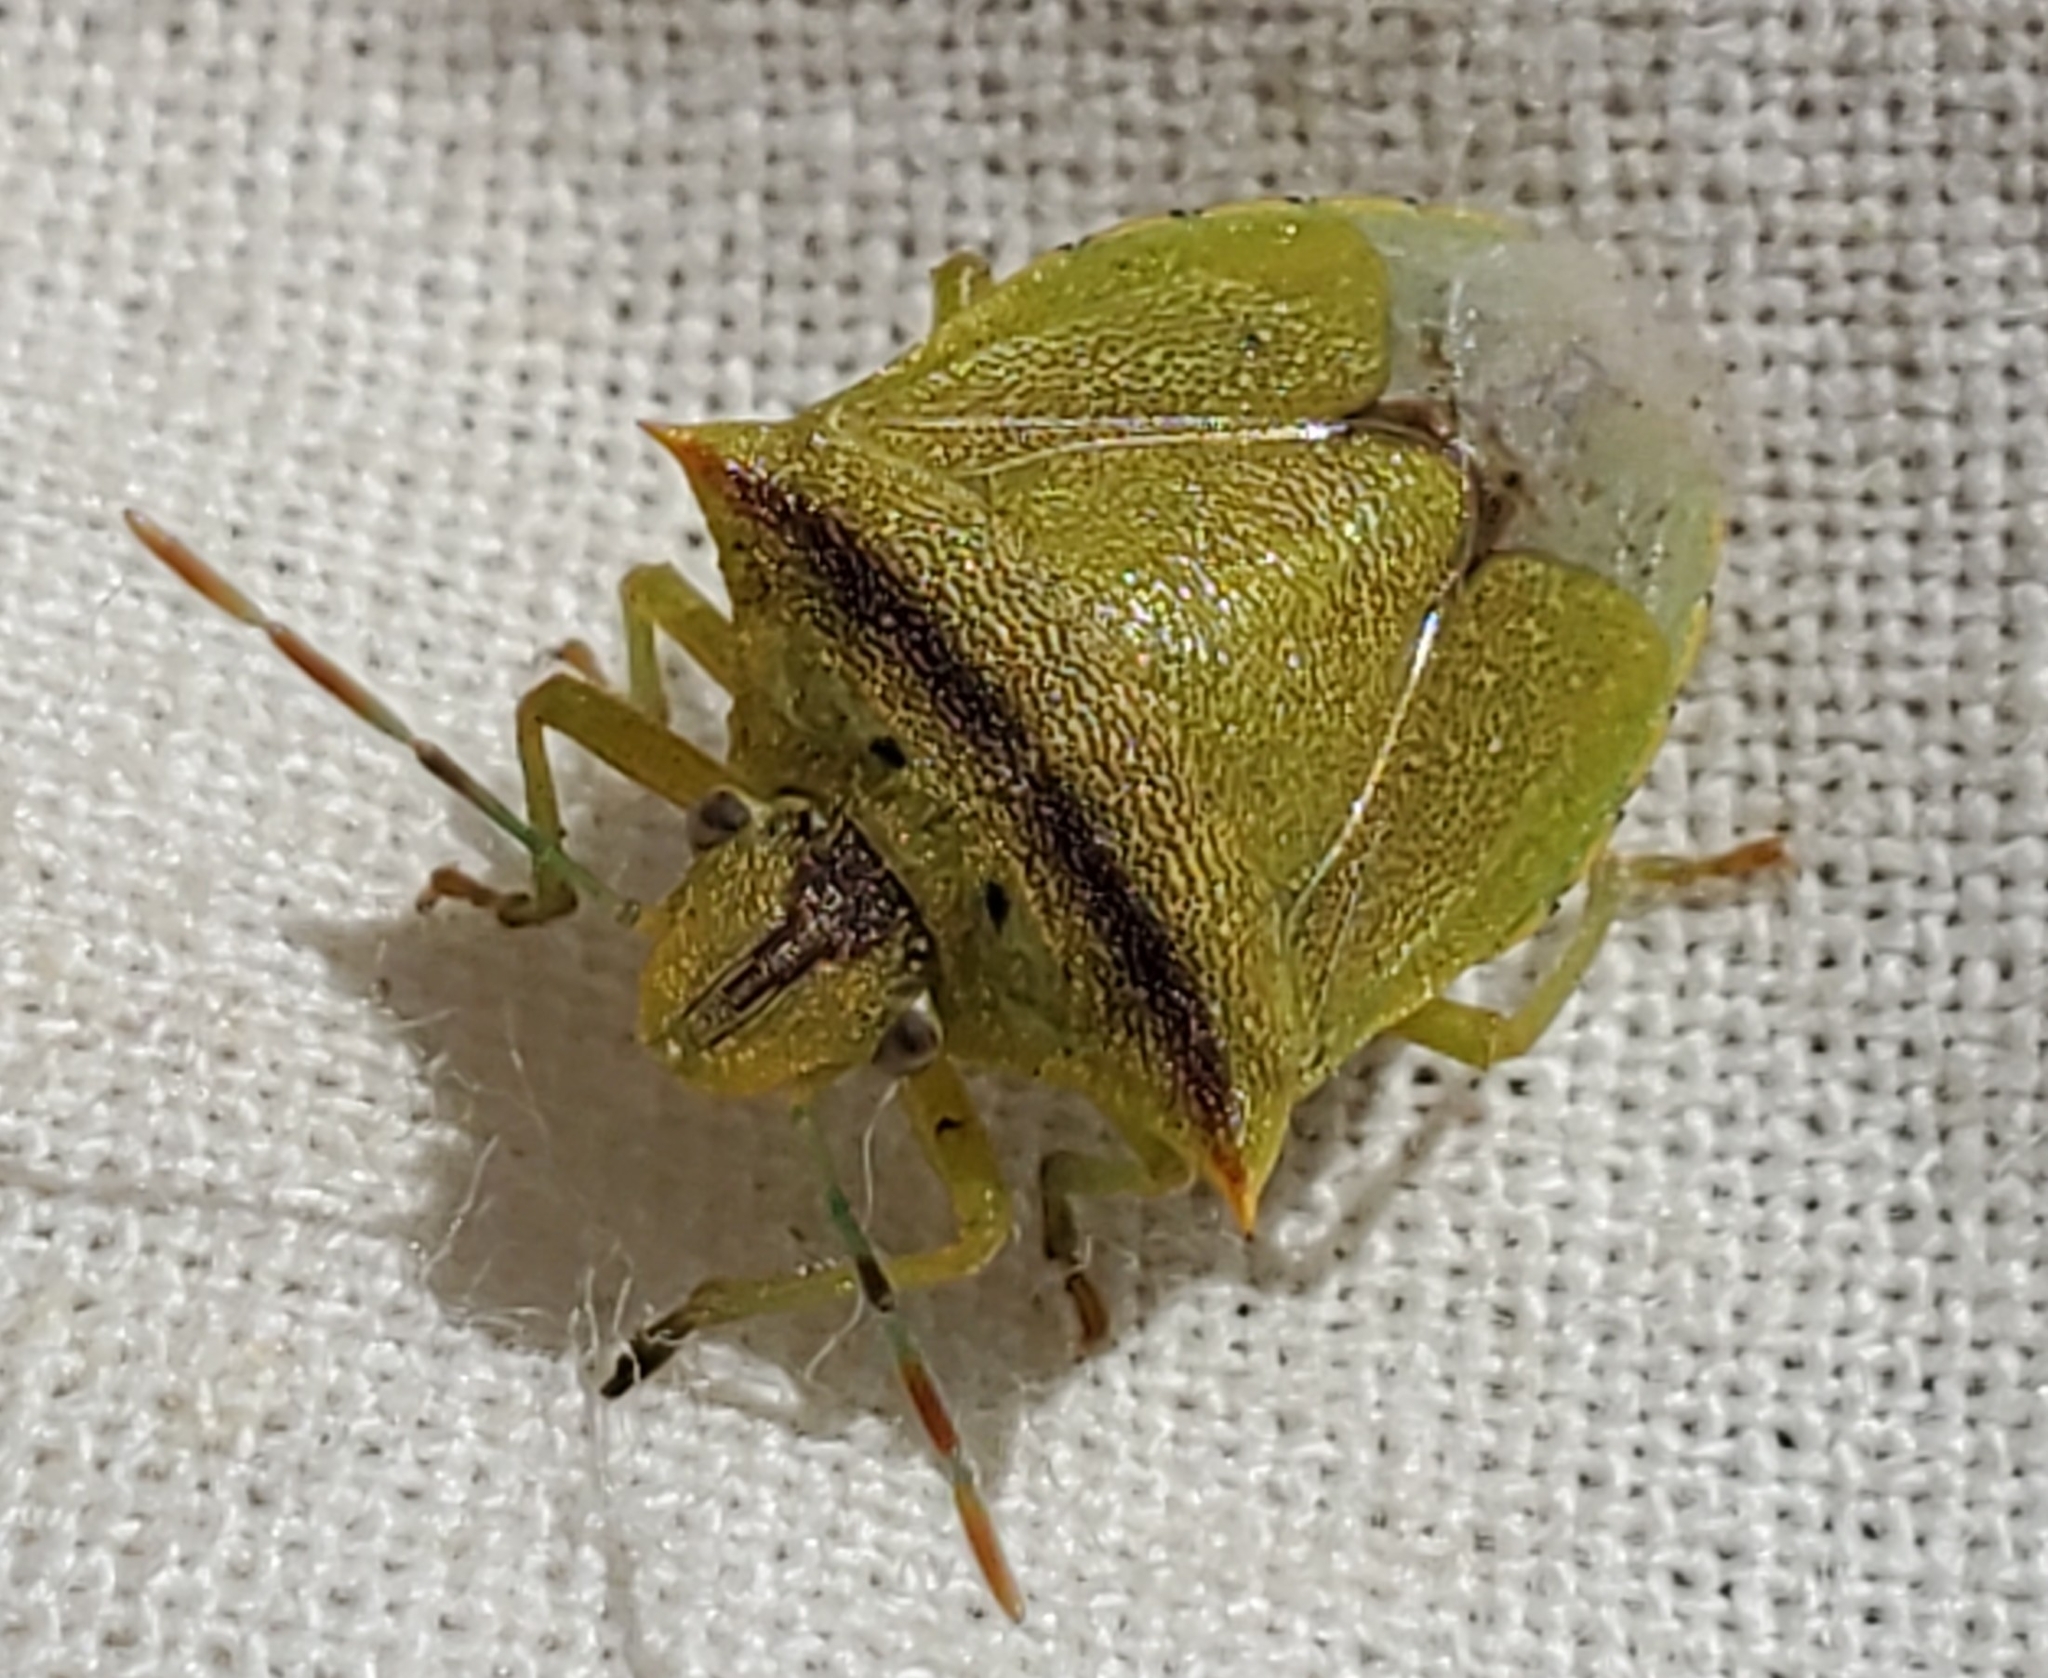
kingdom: Animalia
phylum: Arthropoda
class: Insecta
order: Hemiptera
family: Pentatomidae
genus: Thyanta
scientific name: Thyanta perditor
